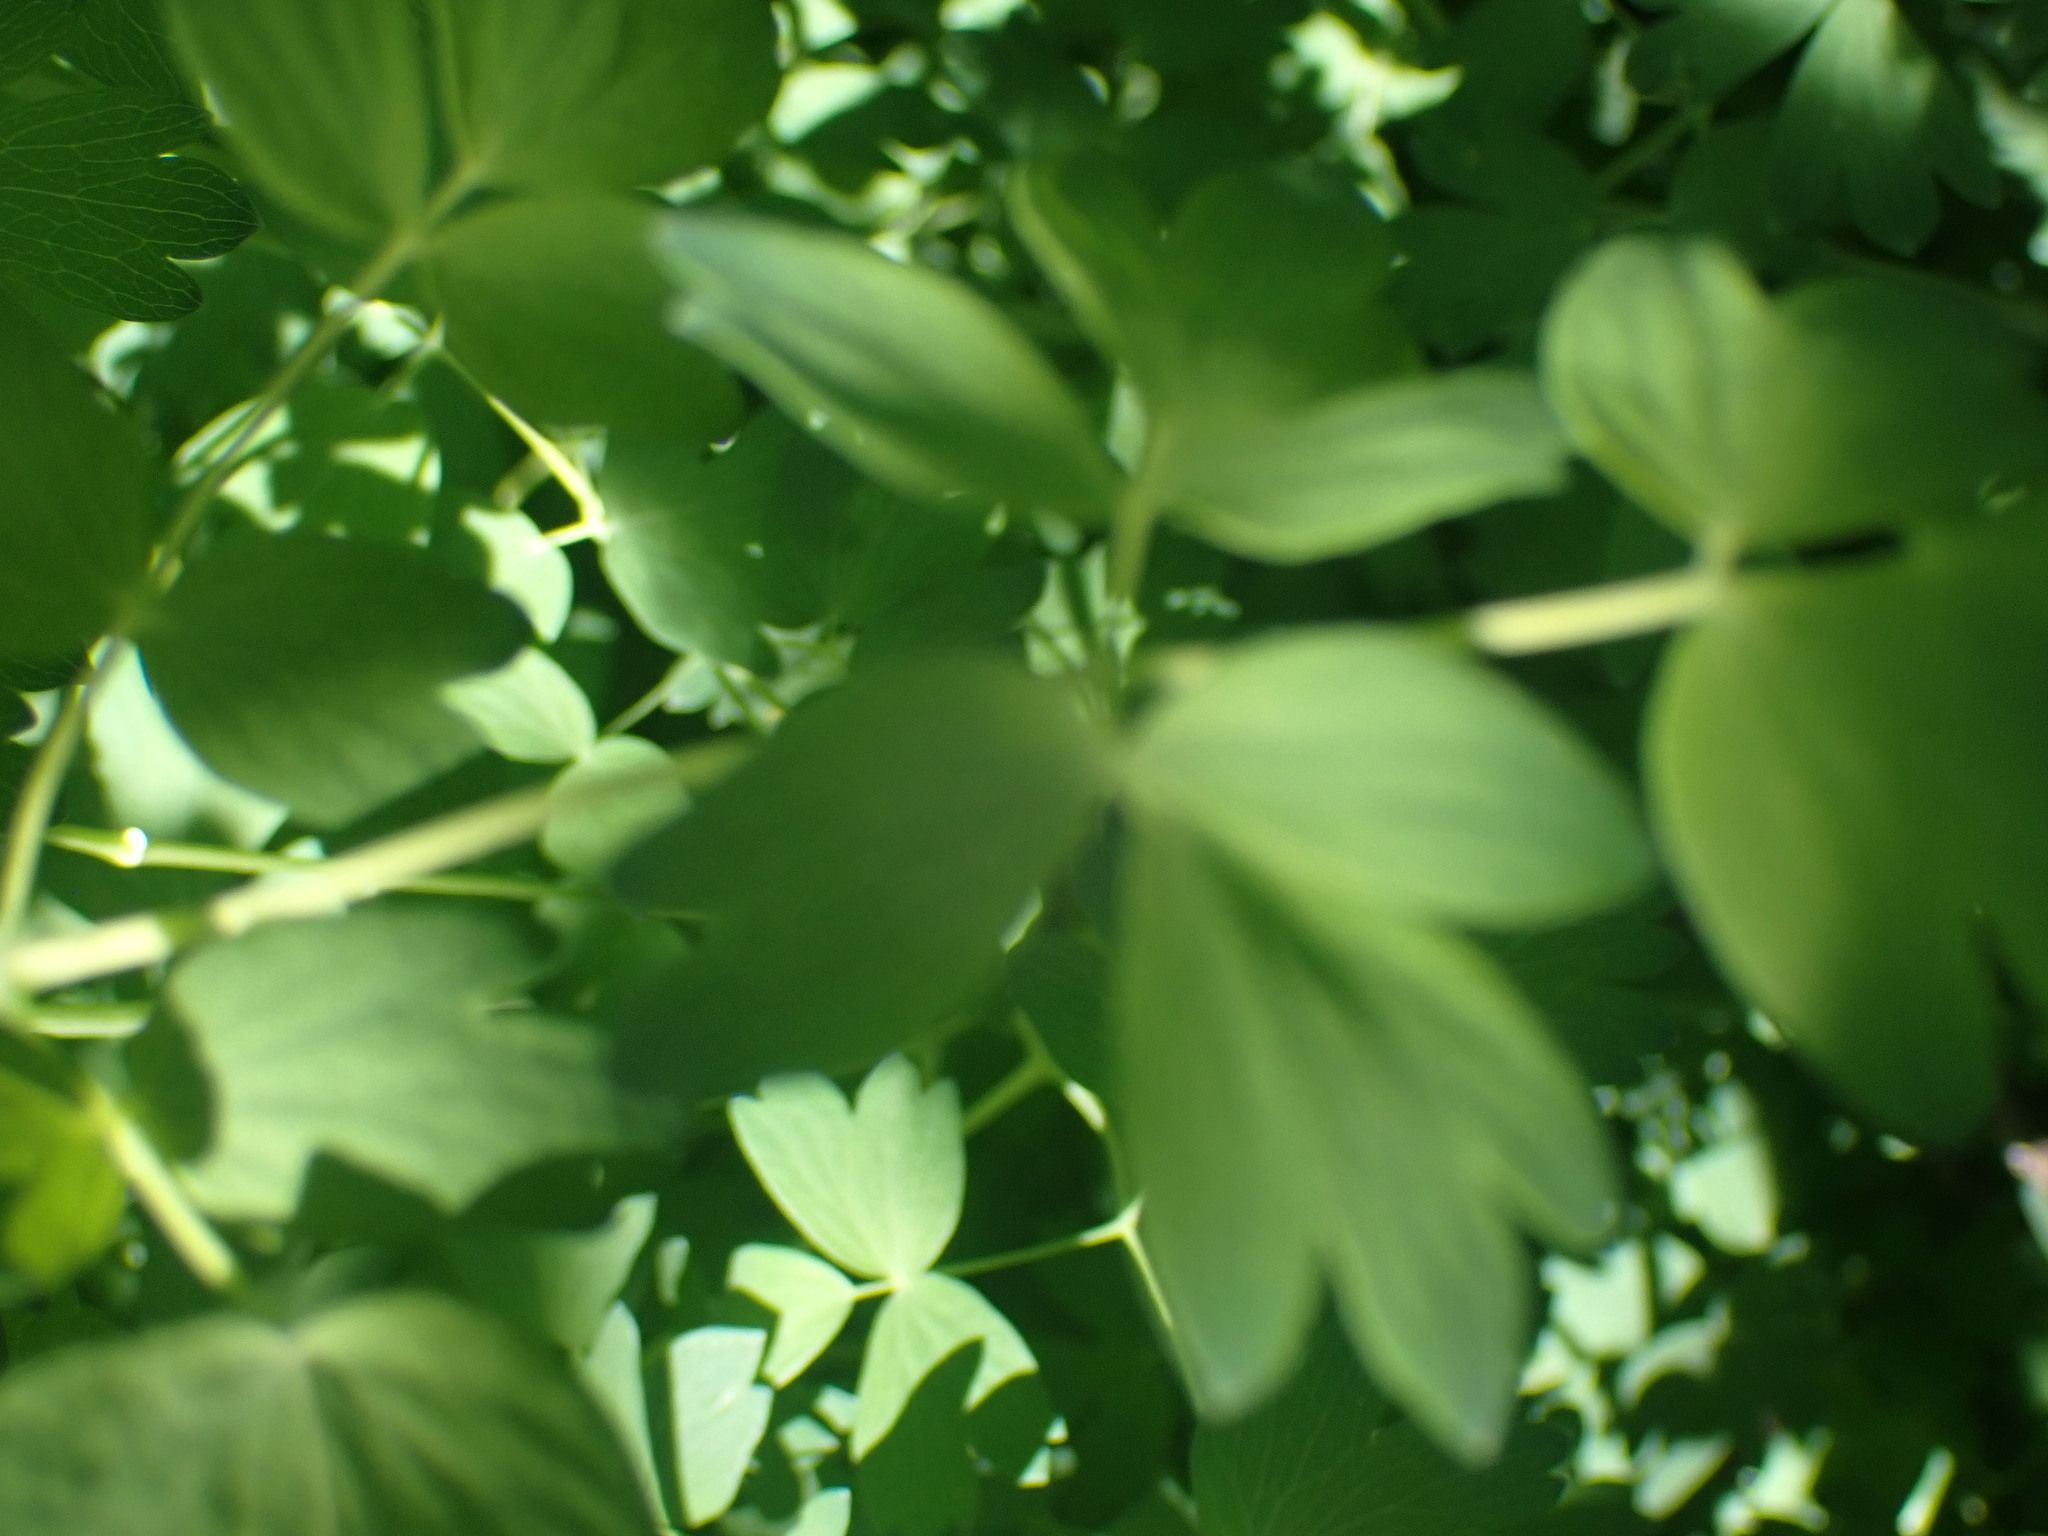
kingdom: Plantae
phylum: Tracheophyta
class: Magnoliopsida
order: Ranunculales
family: Ranunculaceae
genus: Thalictrum
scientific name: Thalictrum occidentale
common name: Western meadow-rue
